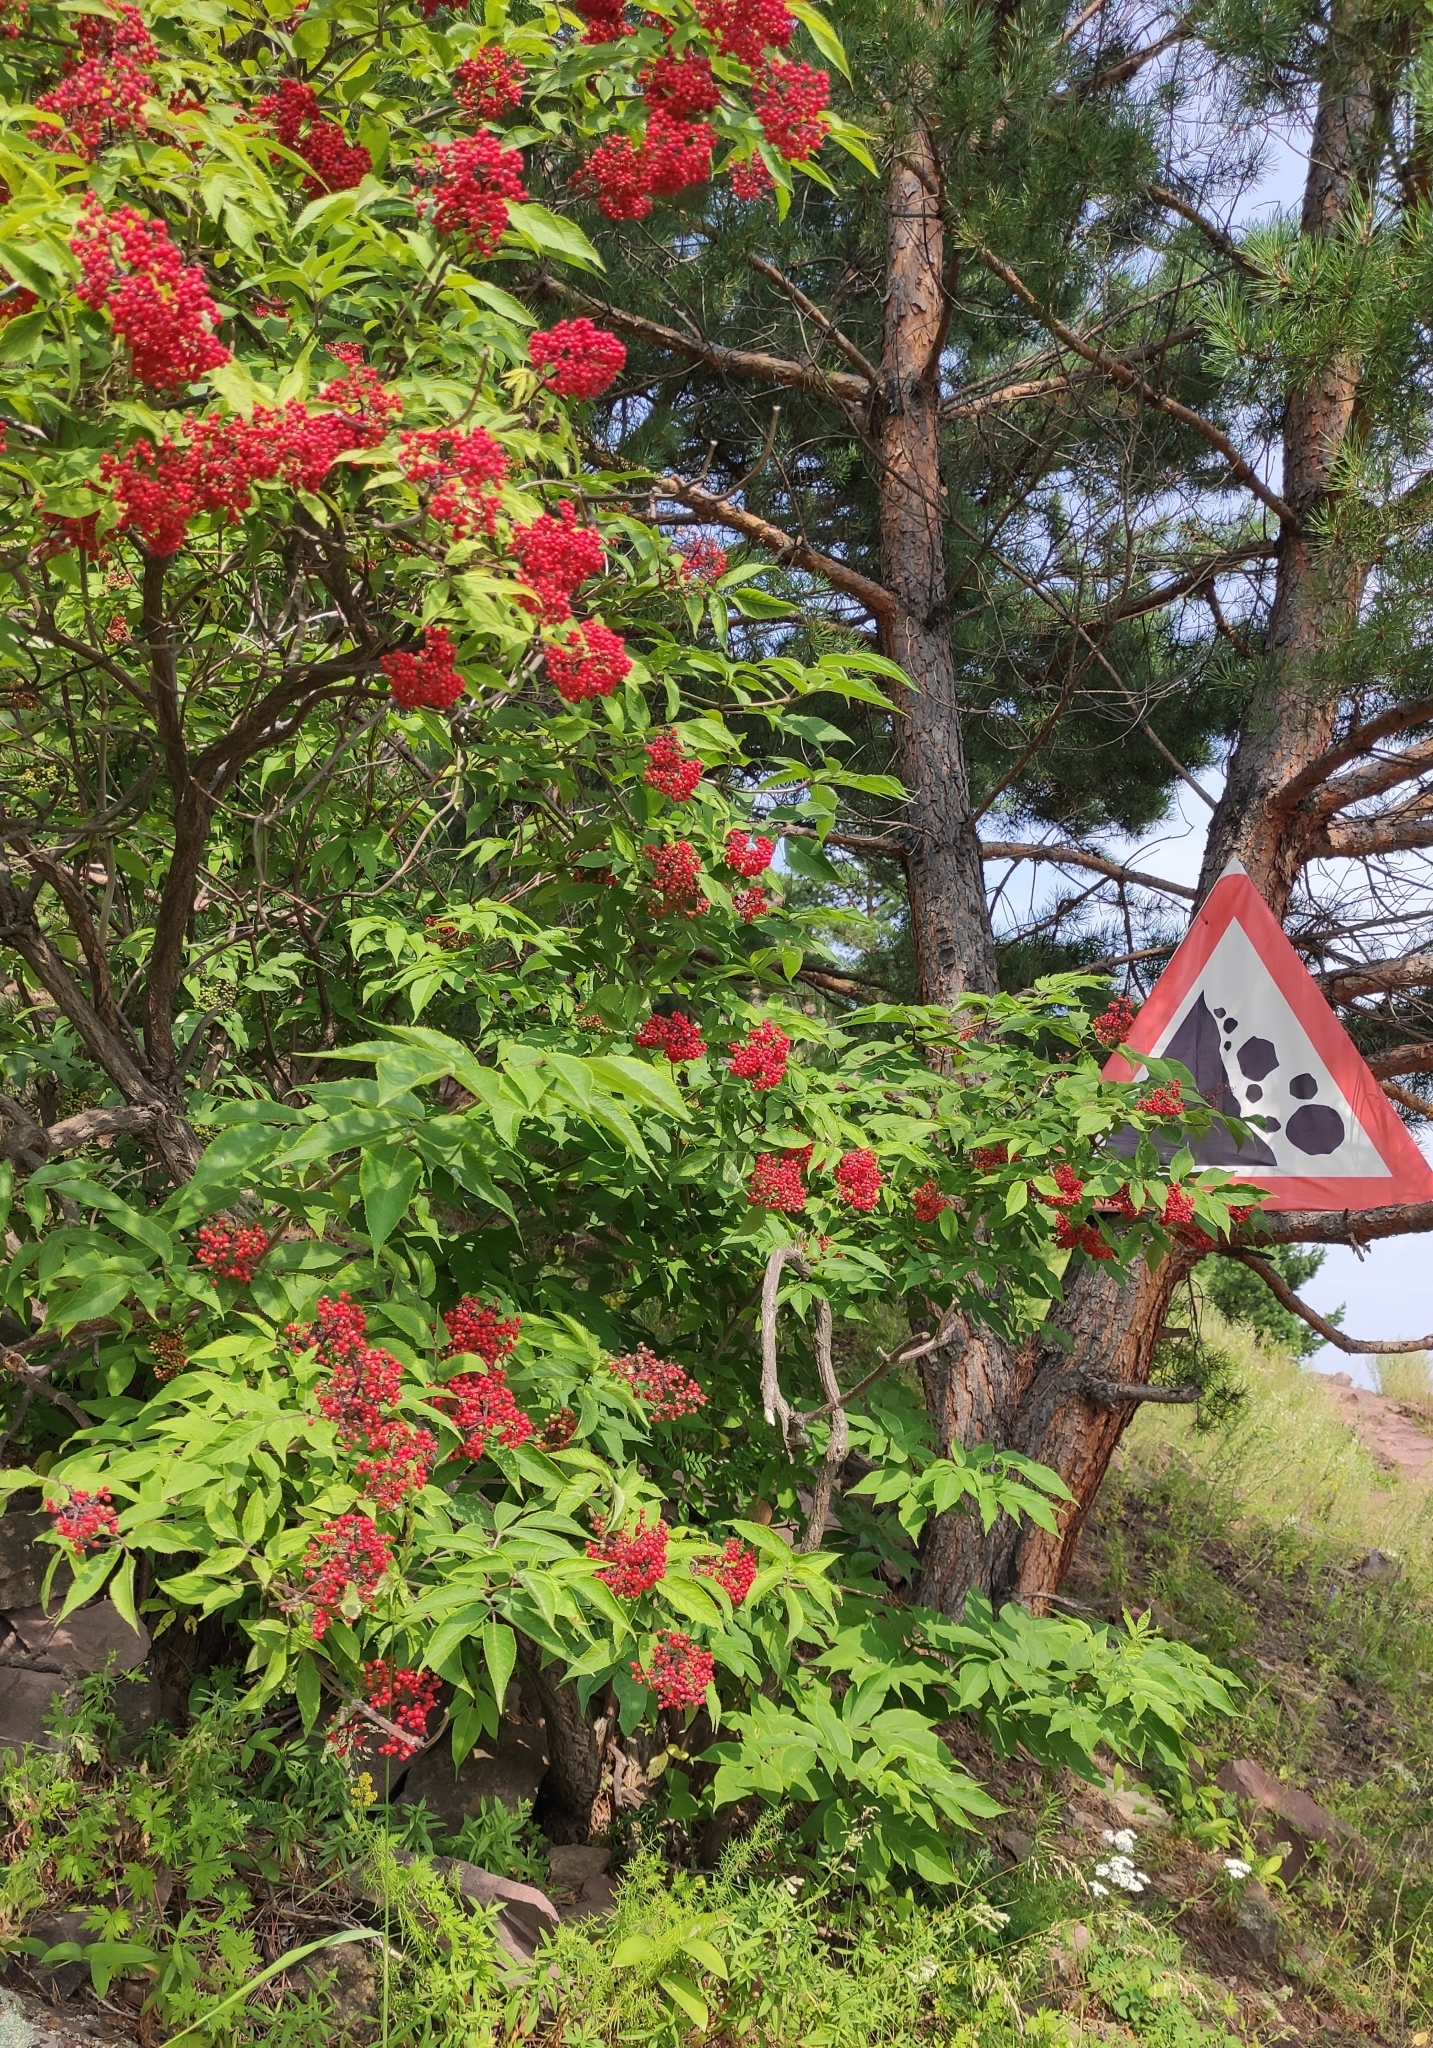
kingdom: Plantae
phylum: Tracheophyta
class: Magnoliopsida
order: Dipsacales
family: Viburnaceae
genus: Sambucus
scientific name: Sambucus sibirica
